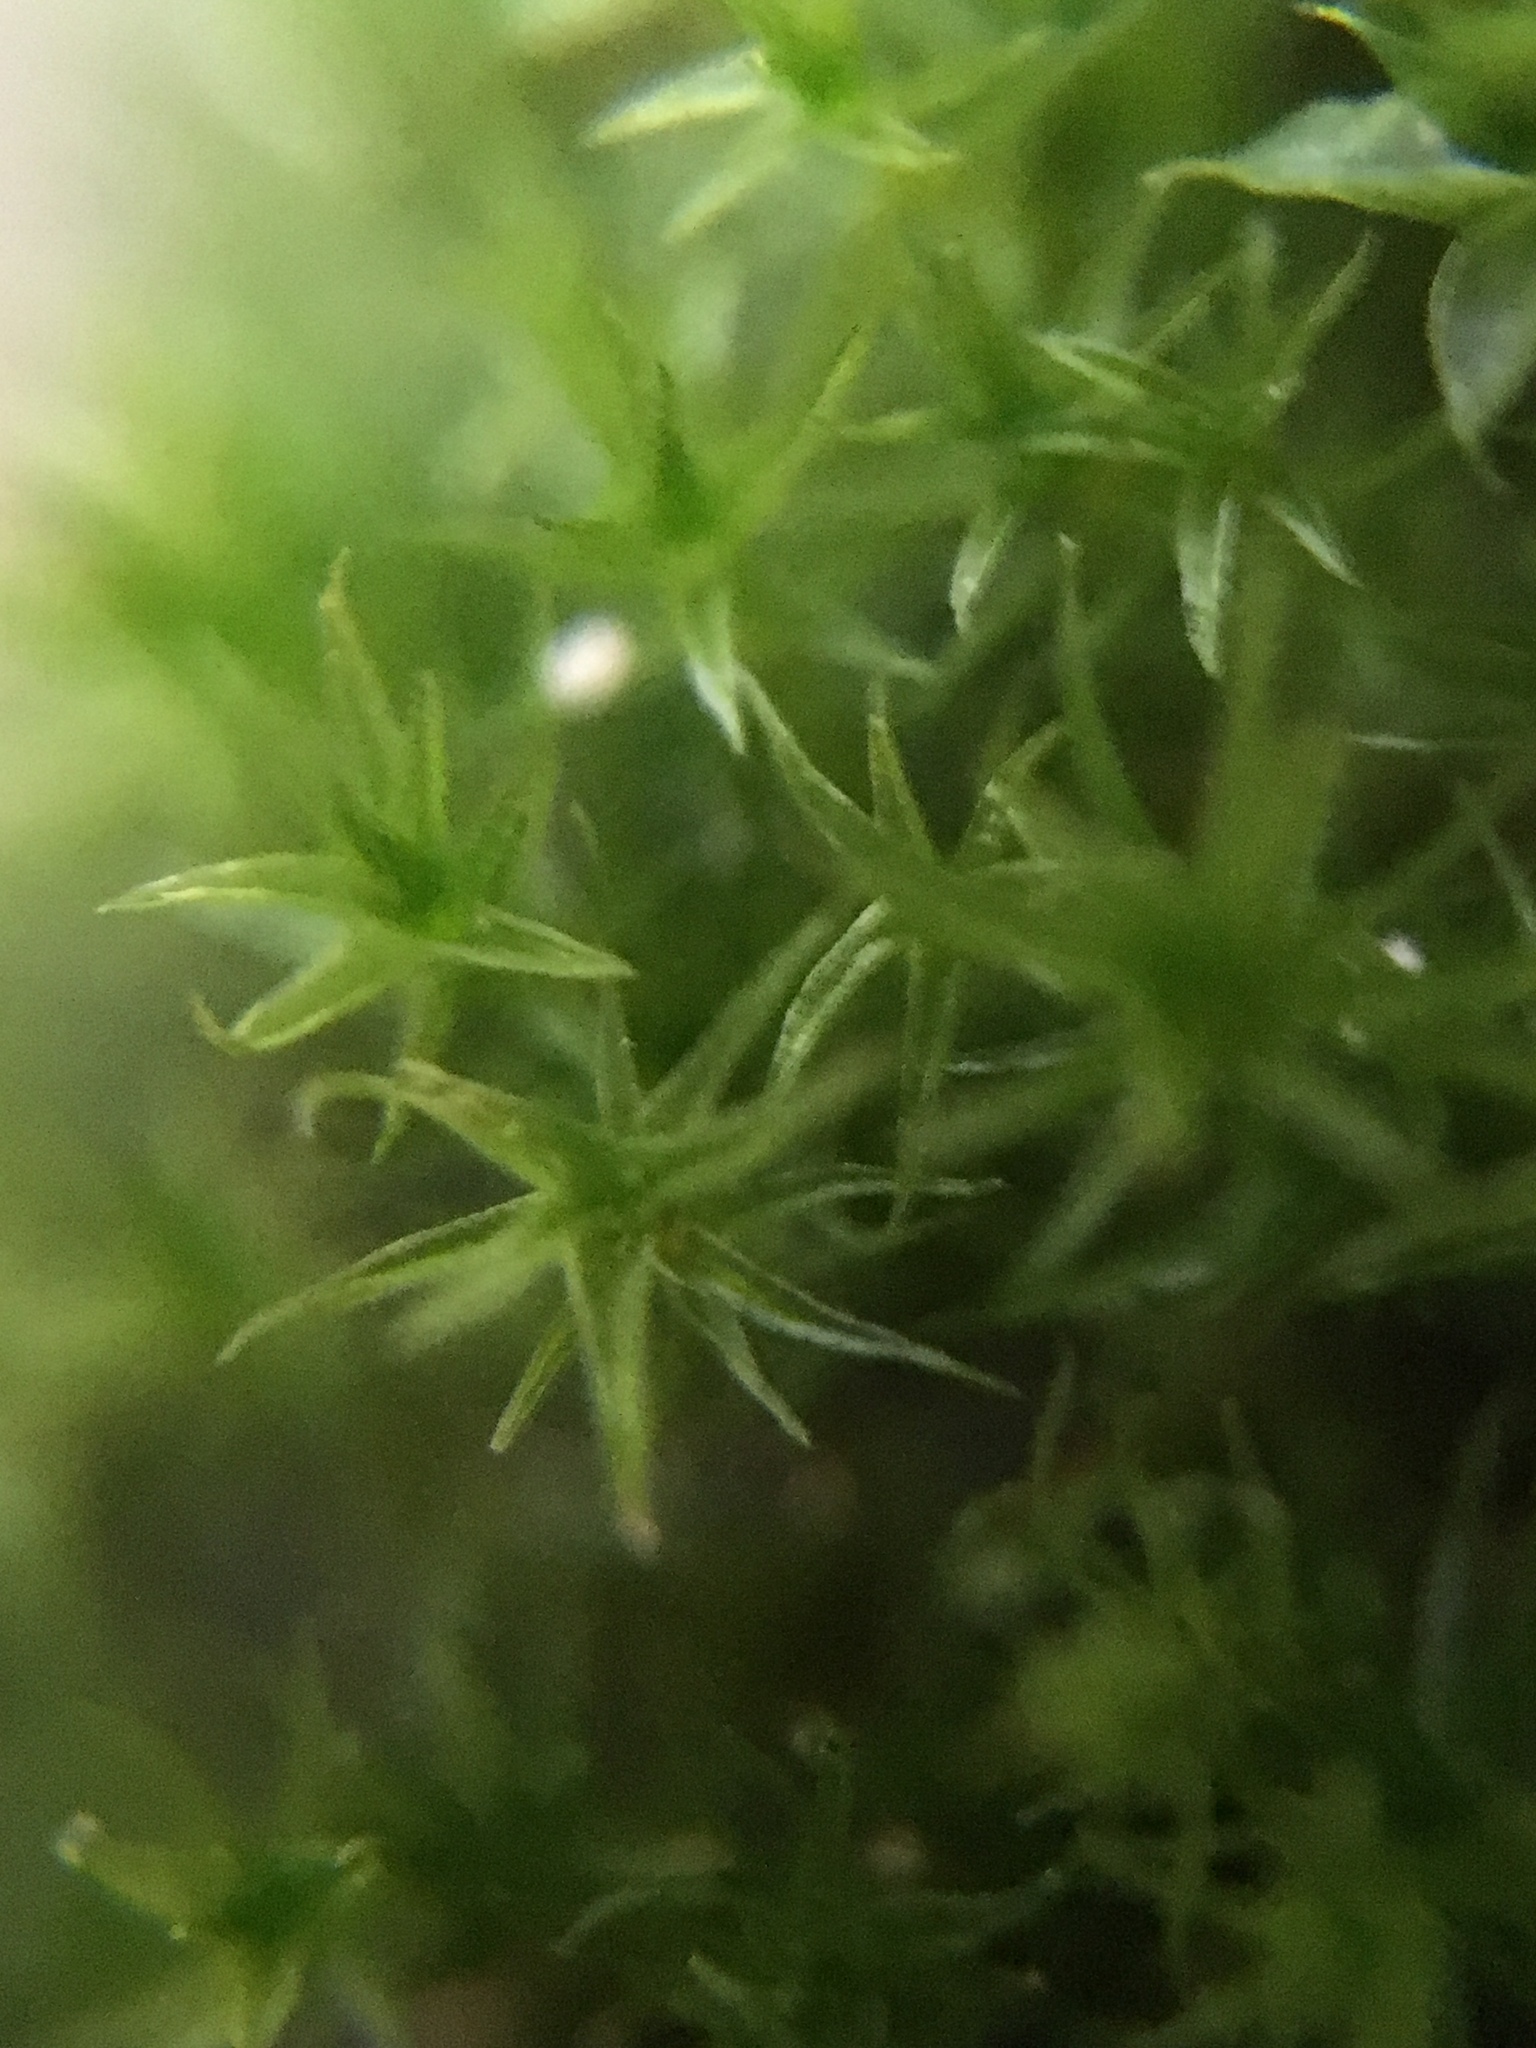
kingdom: Plantae
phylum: Bryophyta
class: Bryopsida
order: Dicranales
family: Ditrichaceae
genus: Ceratodon
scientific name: Ceratodon purpureus
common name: Redshank
